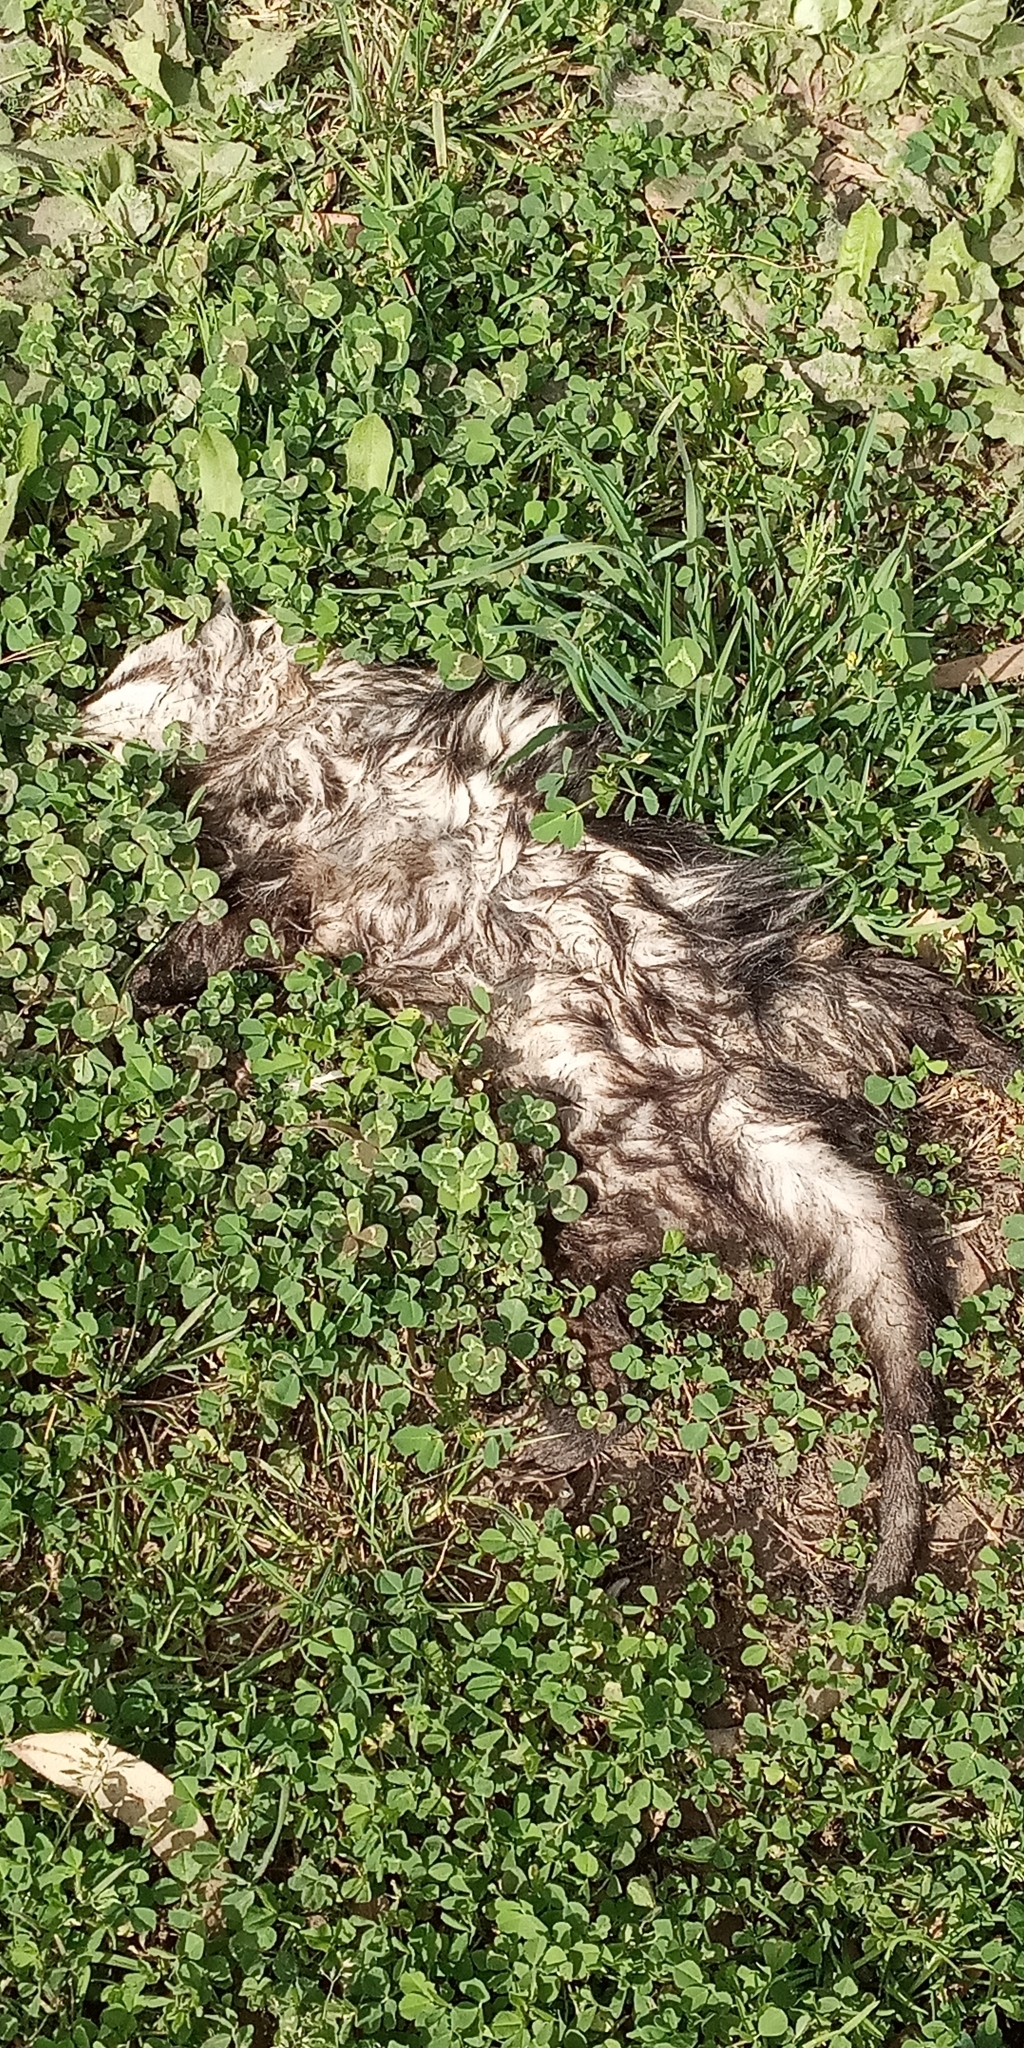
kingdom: Animalia
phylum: Chordata
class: Mammalia
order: Didelphimorphia
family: Didelphidae
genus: Didelphis
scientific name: Didelphis albiventris
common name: White-eared opossum
